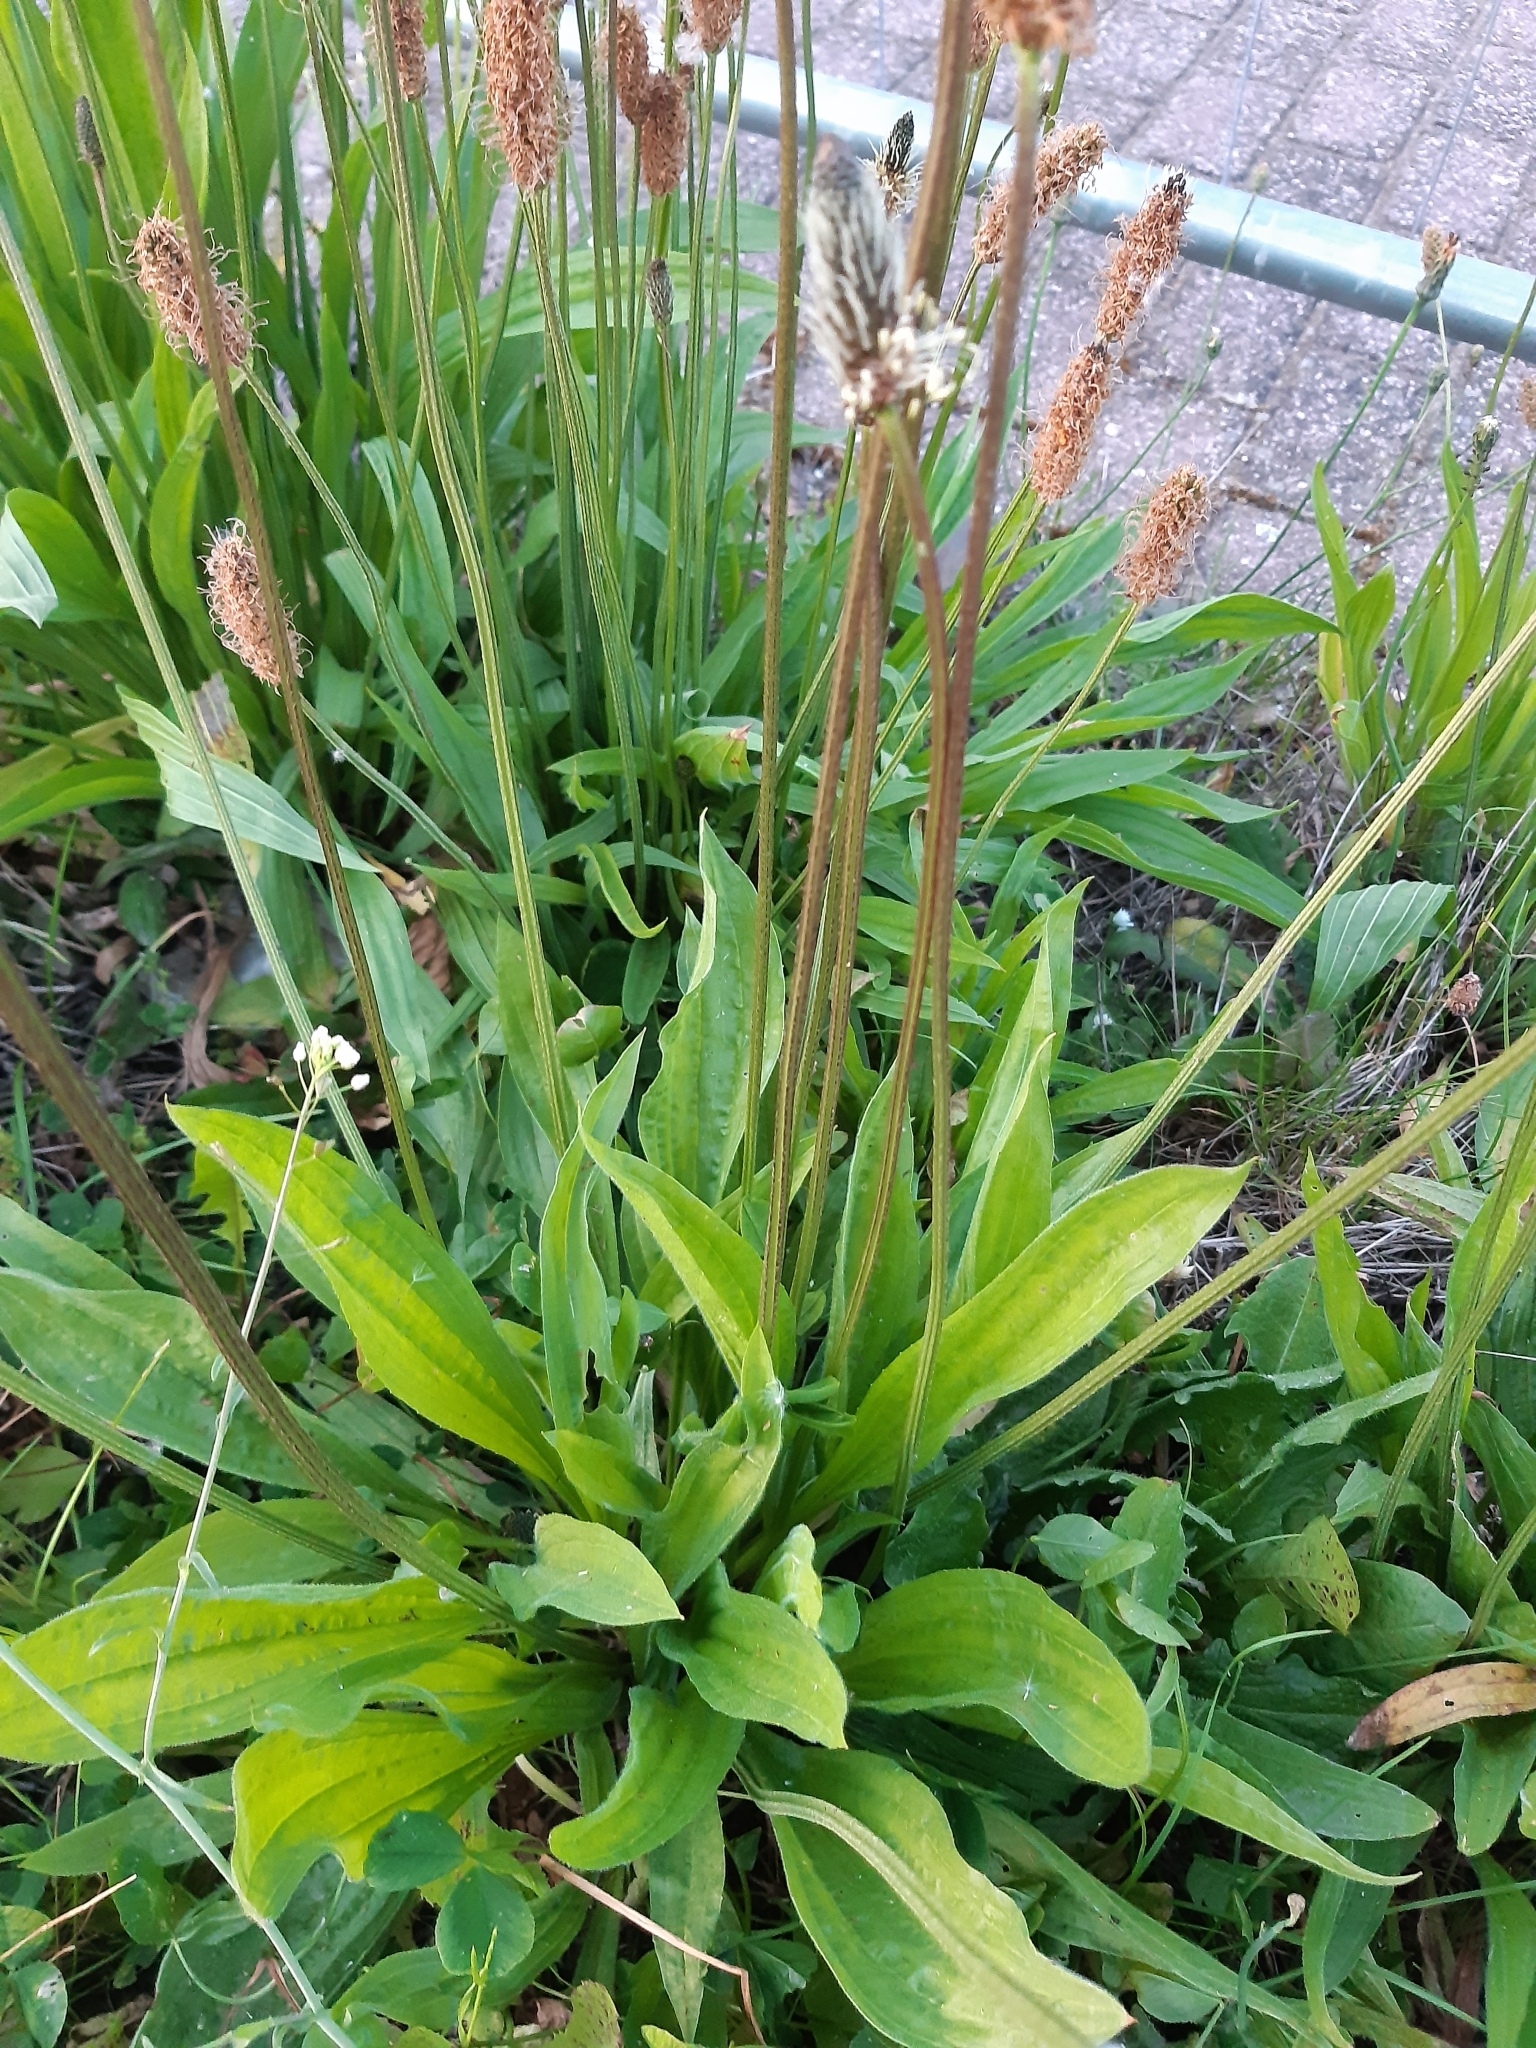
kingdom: Plantae
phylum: Tracheophyta
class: Magnoliopsida
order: Lamiales
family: Plantaginaceae
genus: Plantago
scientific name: Plantago lanceolata
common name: Ribwort plantain
